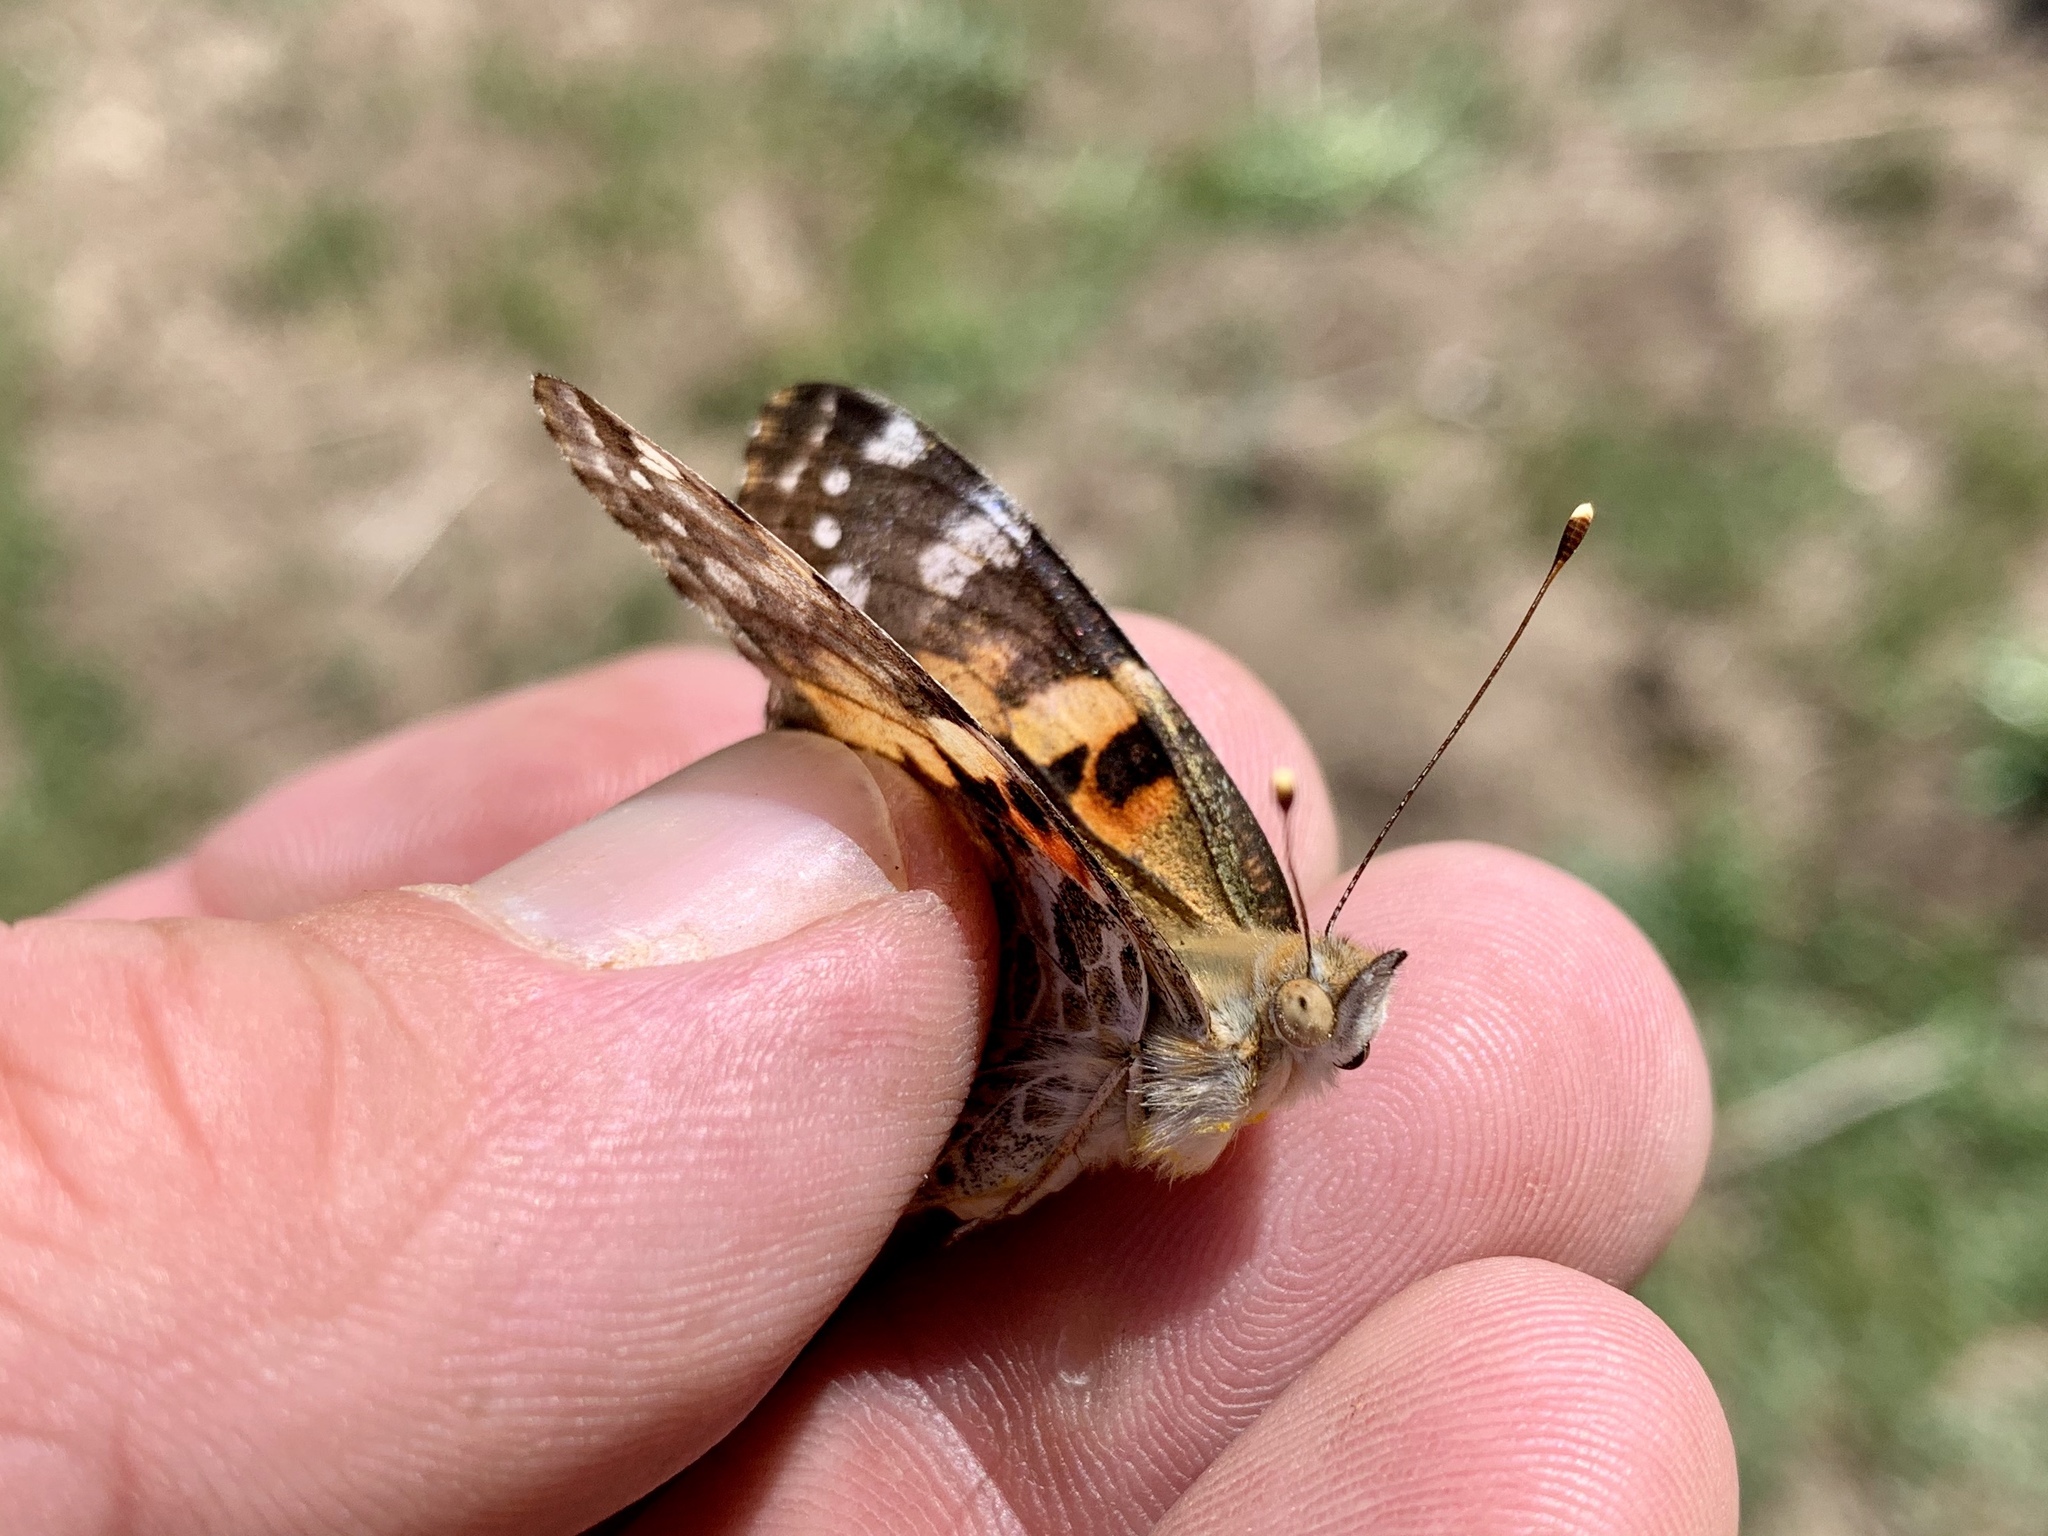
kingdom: Animalia
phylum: Arthropoda
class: Insecta
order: Lepidoptera
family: Nymphalidae
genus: Vanessa
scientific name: Vanessa cardui
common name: Painted lady
